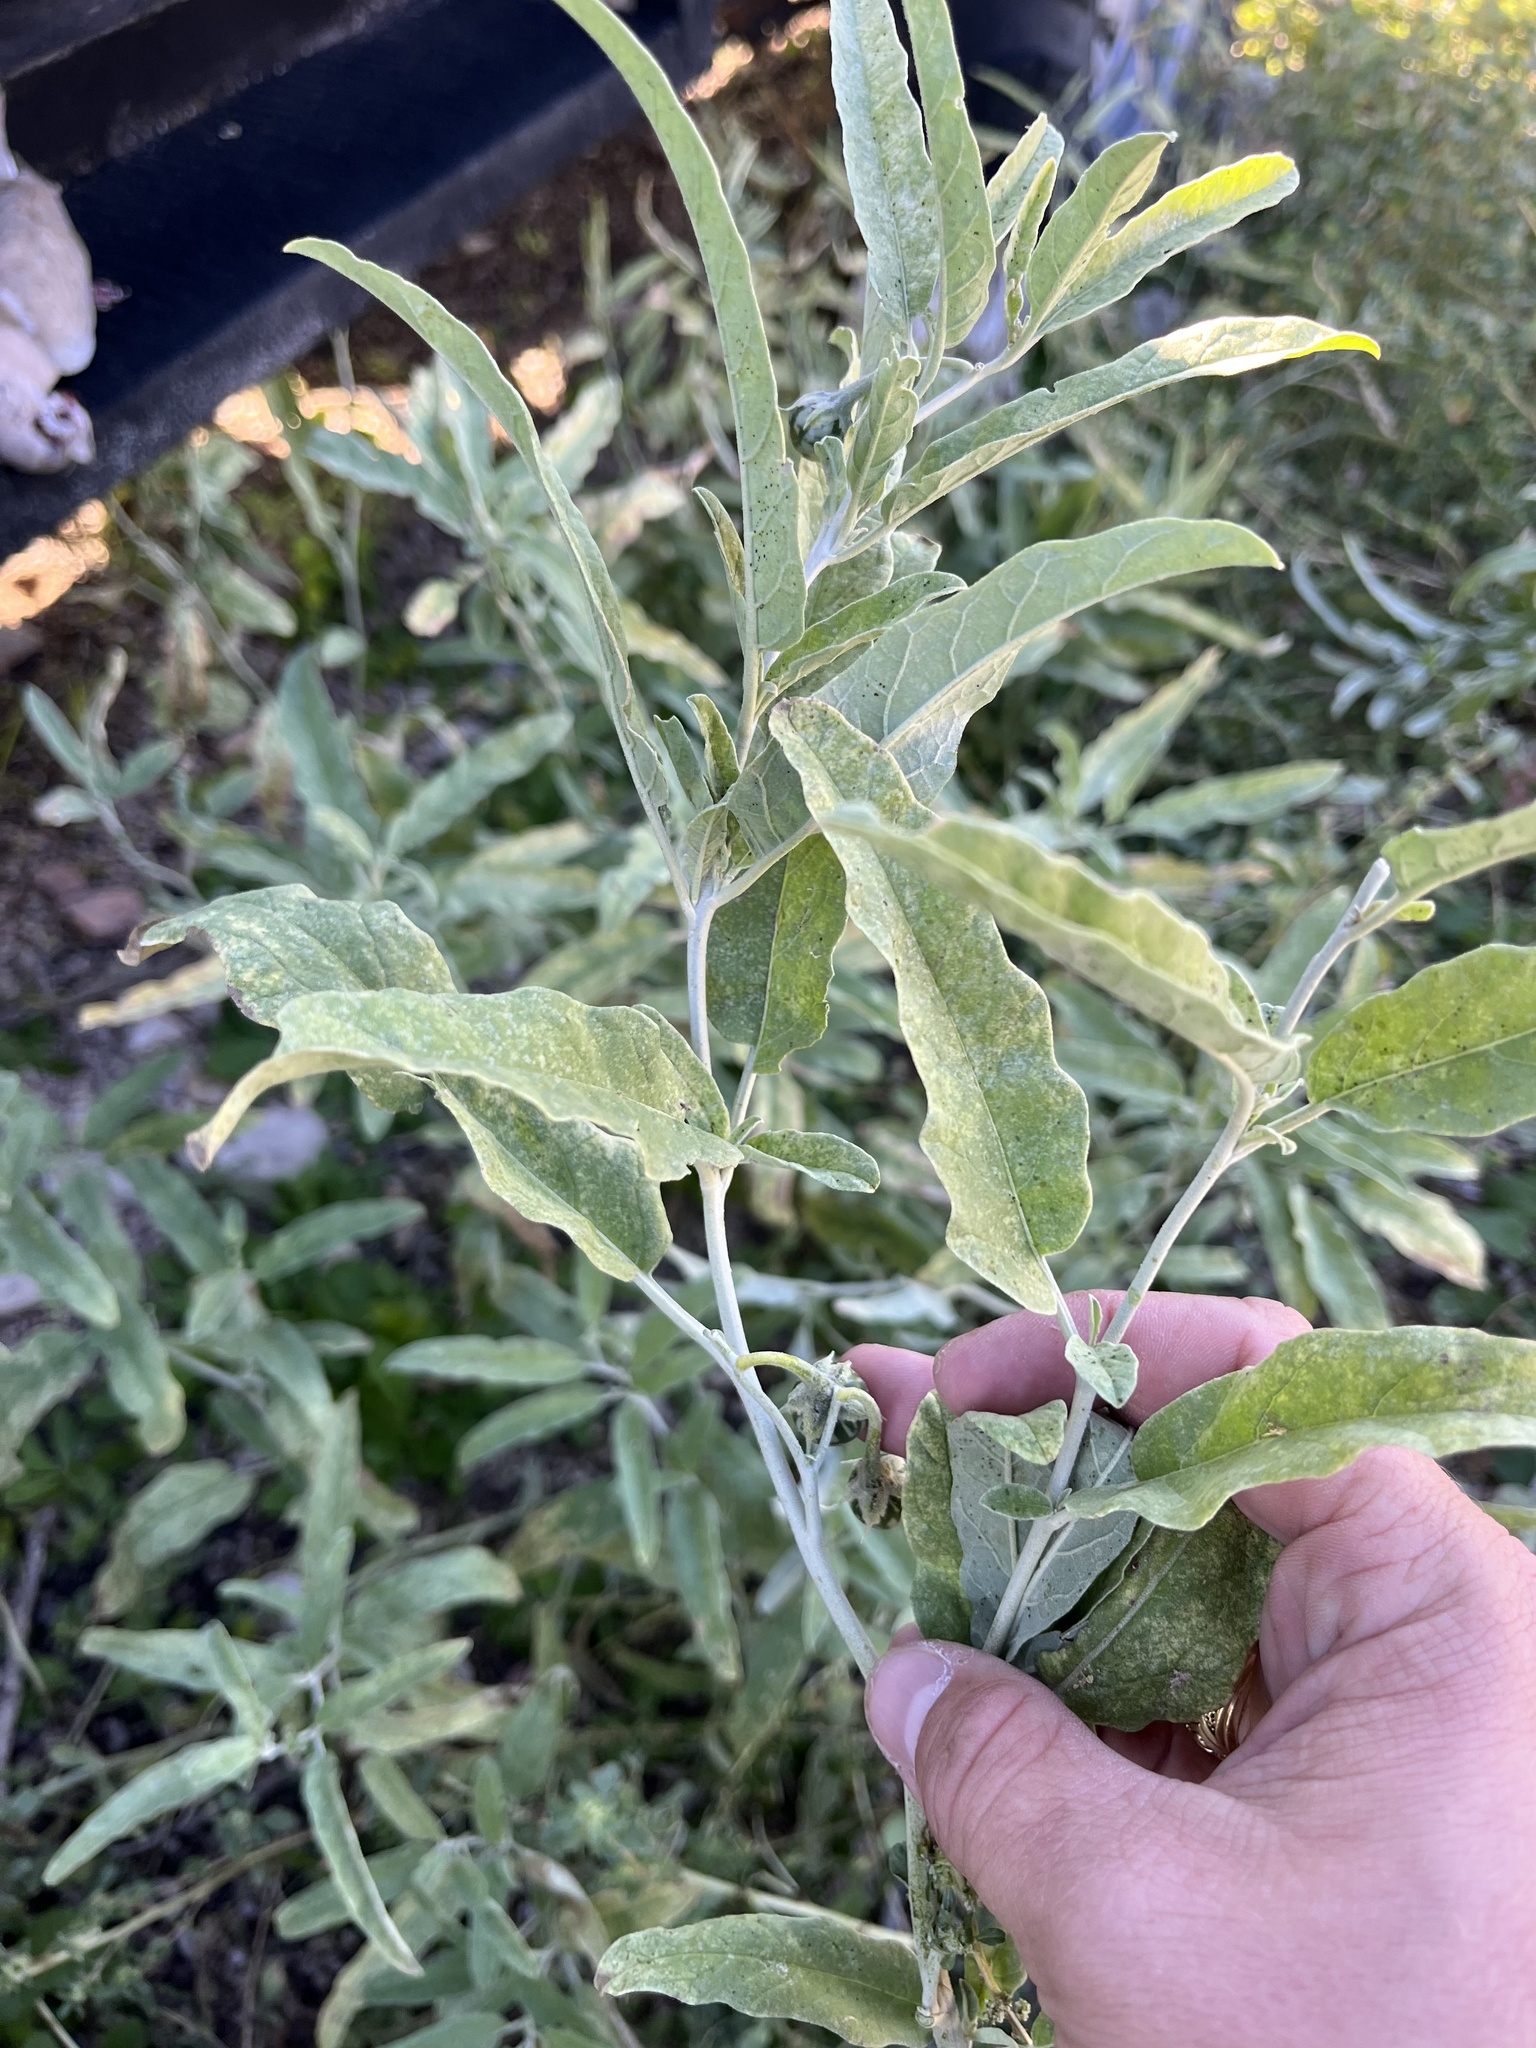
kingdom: Plantae
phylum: Tracheophyta
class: Magnoliopsida
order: Solanales
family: Solanaceae
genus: Solanum
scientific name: Solanum elaeagnifolium
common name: Silverleaf nightshade
